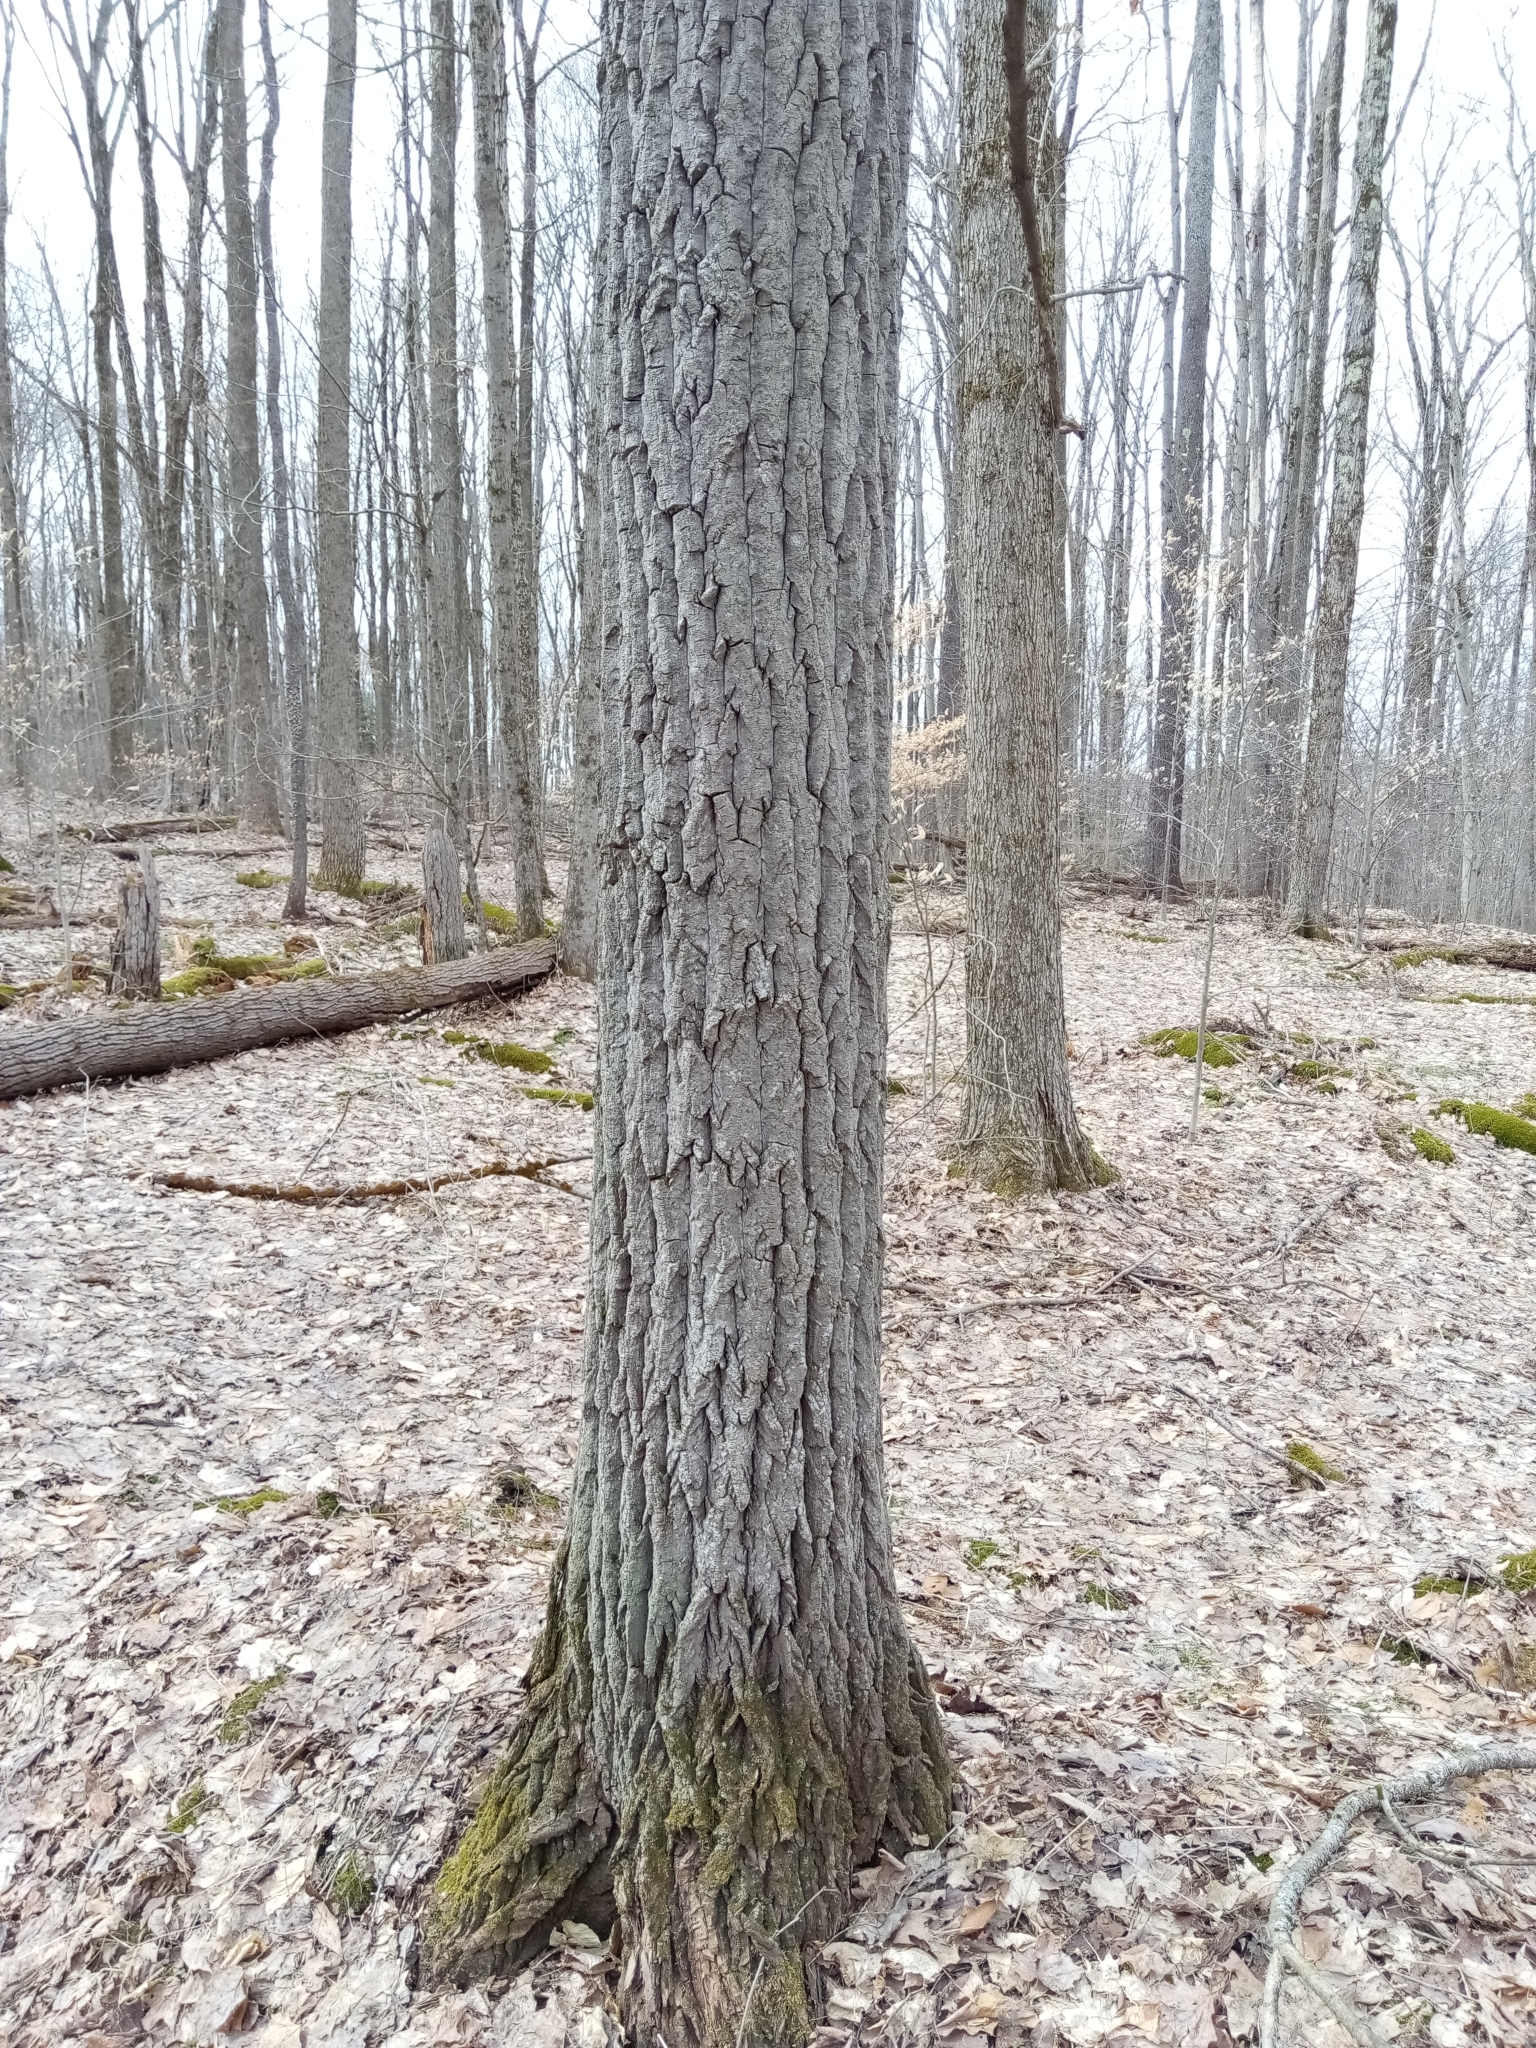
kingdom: Plantae
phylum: Tracheophyta
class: Magnoliopsida
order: Malpighiales
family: Salicaceae
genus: Populus
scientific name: Populus grandidentata
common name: Bigtooth aspen
